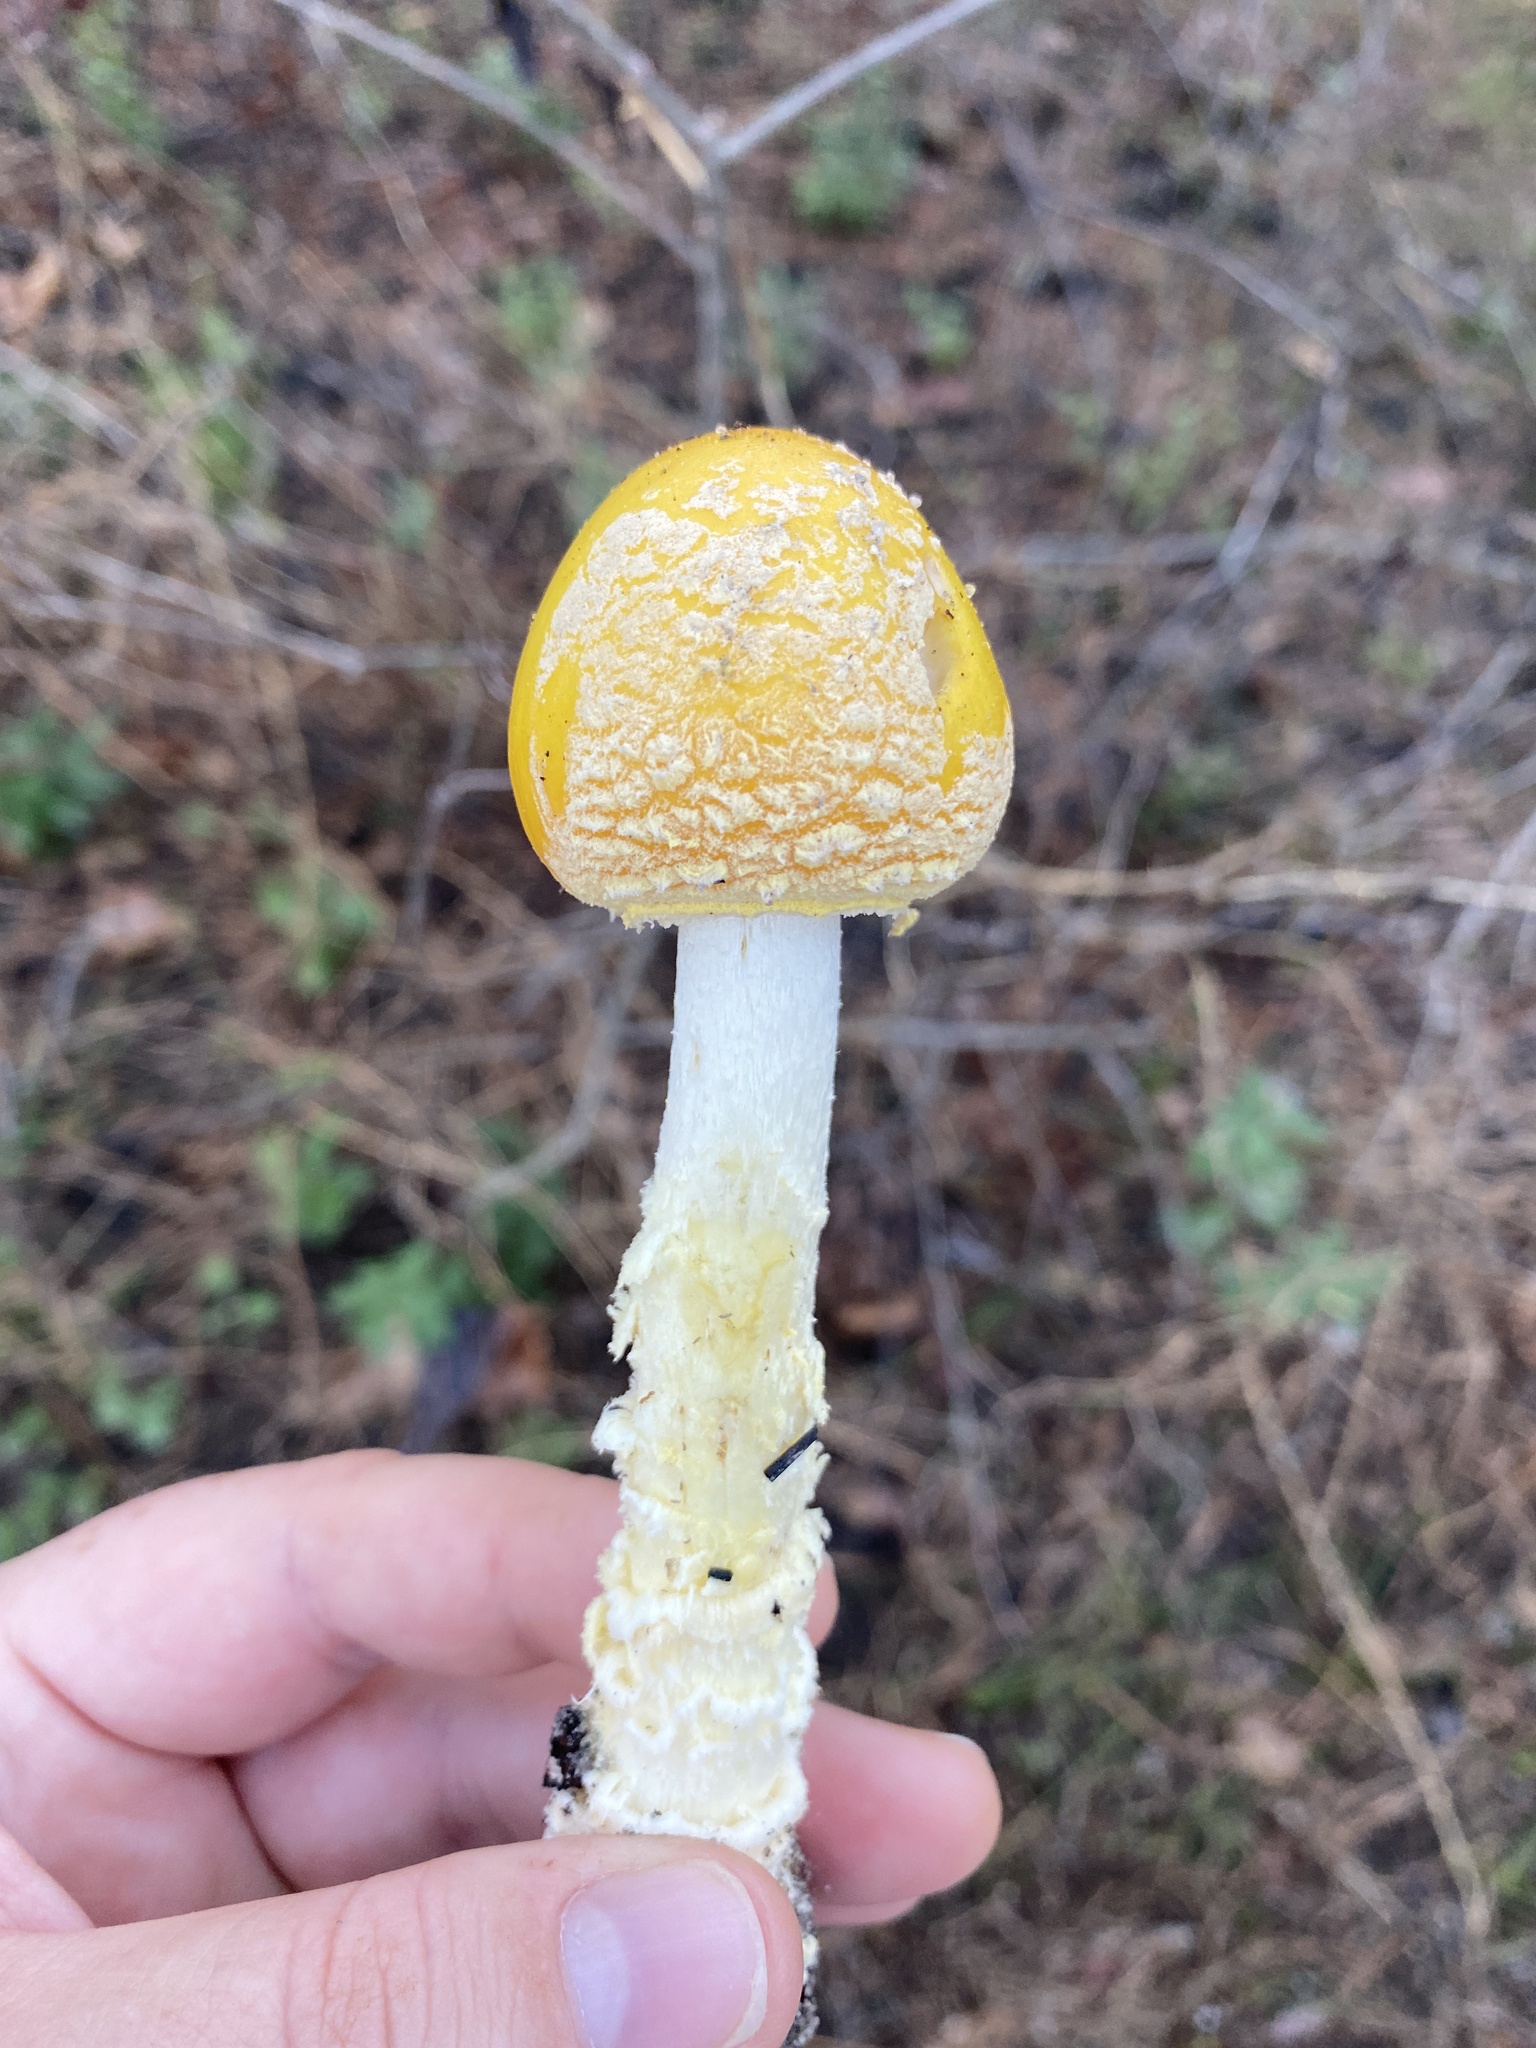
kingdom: Fungi
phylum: Basidiomycota
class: Agaricomycetes
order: Agaricales
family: Amanitaceae
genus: Amanita
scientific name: Amanita muscaria
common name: Fly agaric
